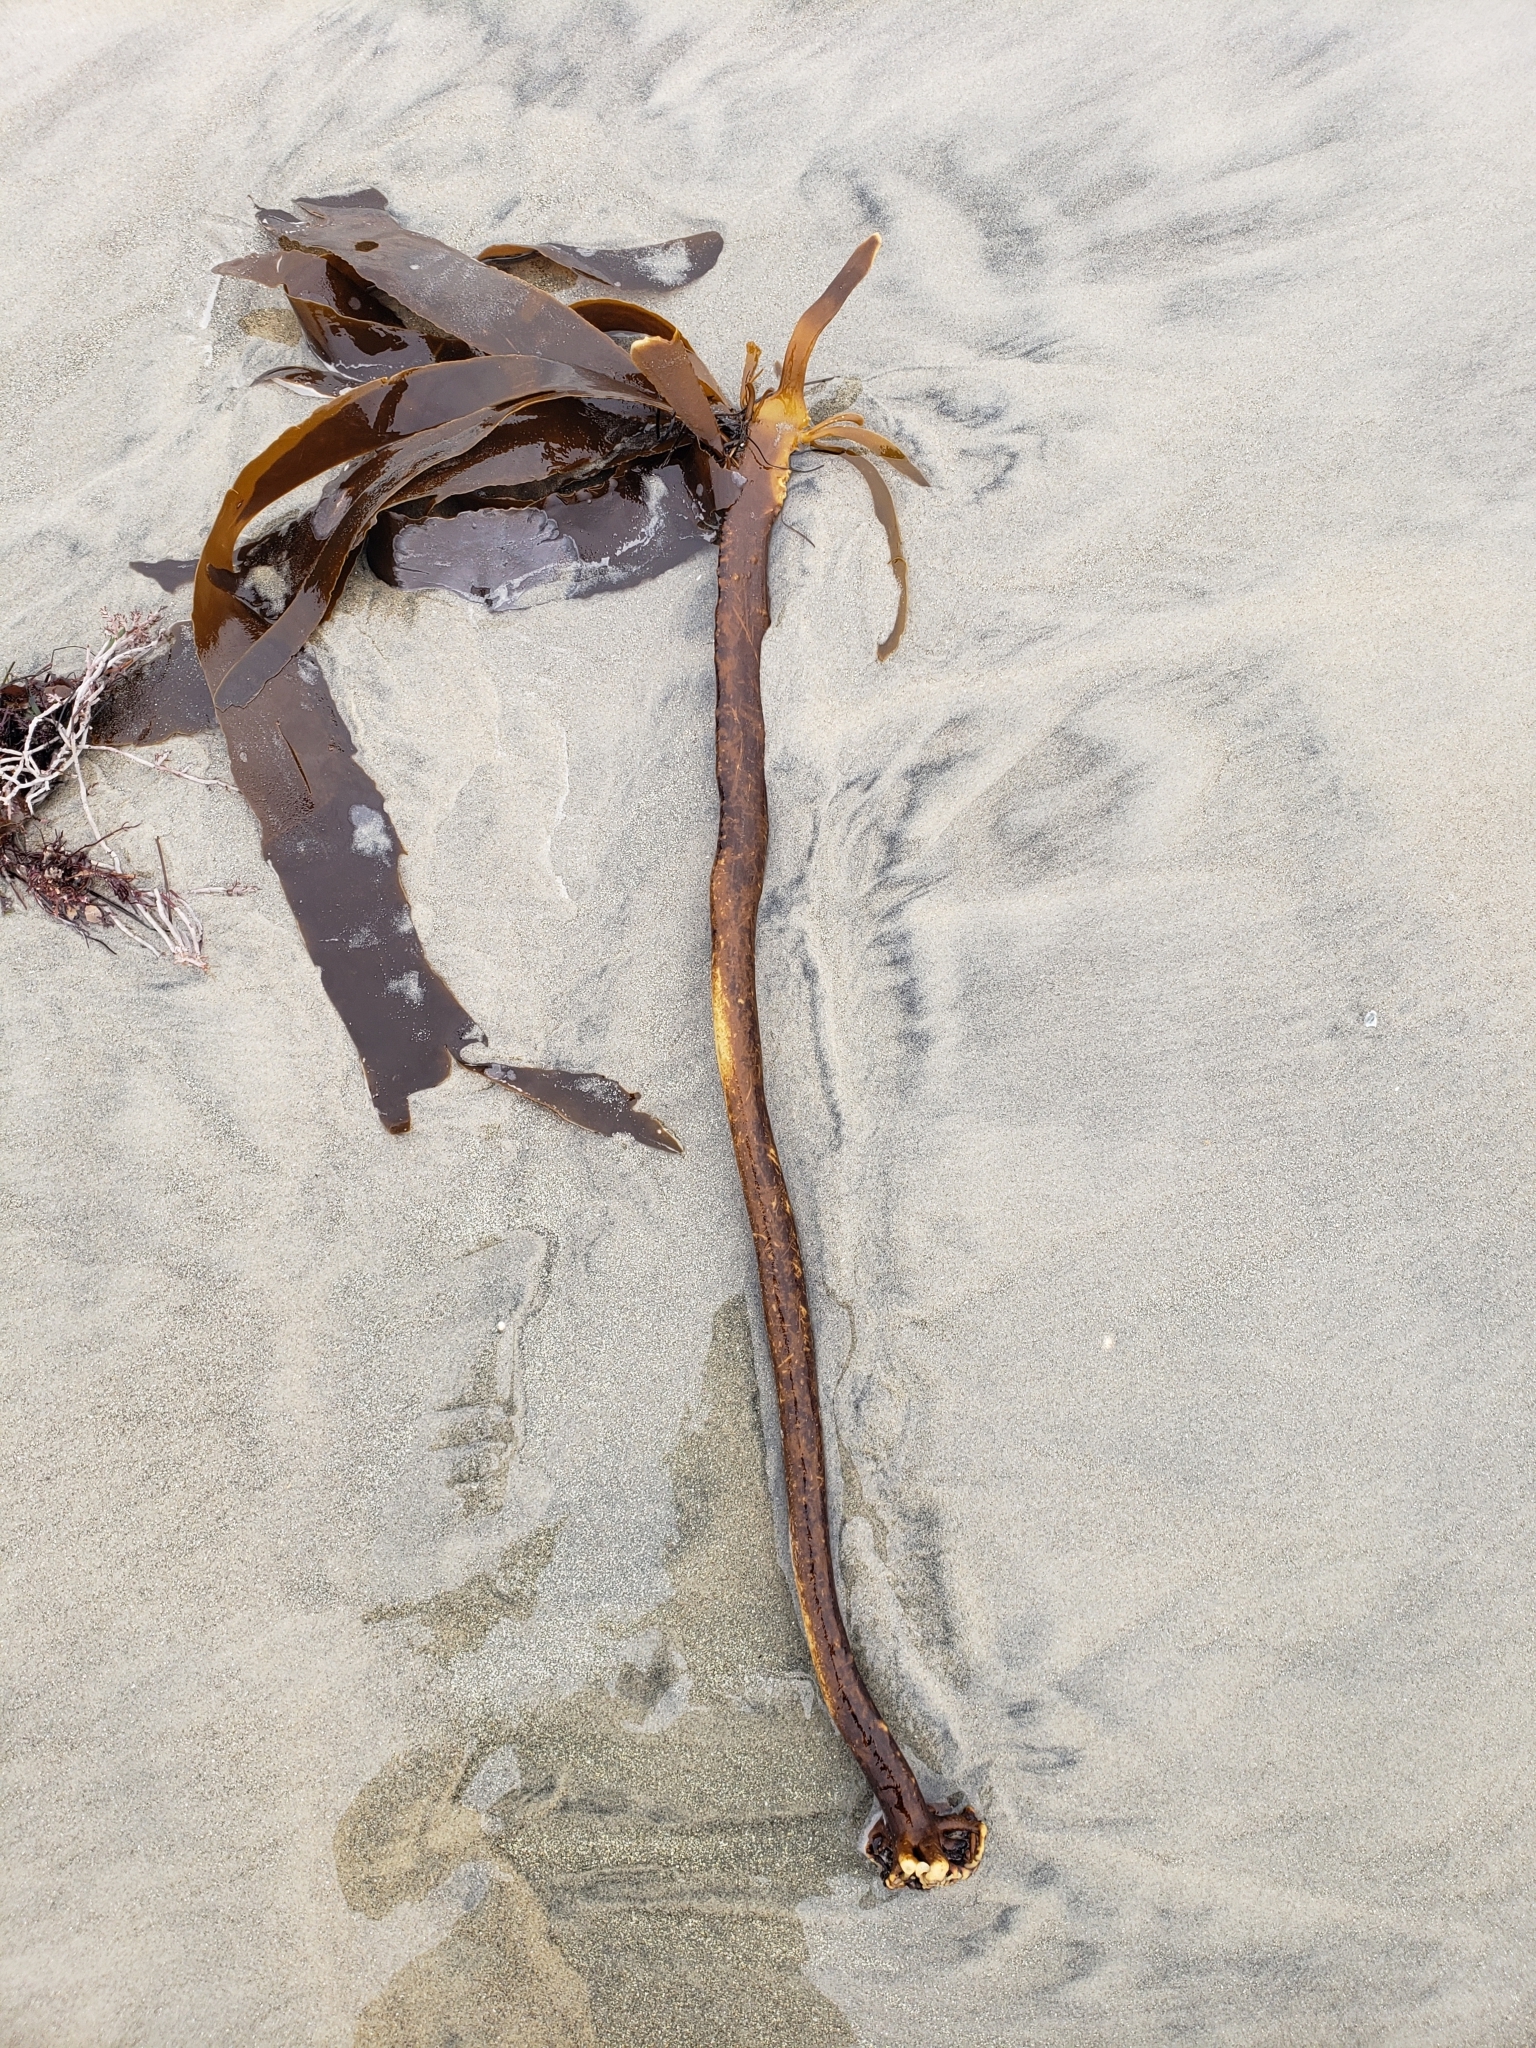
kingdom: Chromista
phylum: Ochrophyta
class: Phaeophyceae
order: Laminariales
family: Alariaceae
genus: Pterygophora
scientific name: Pterygophora californica
